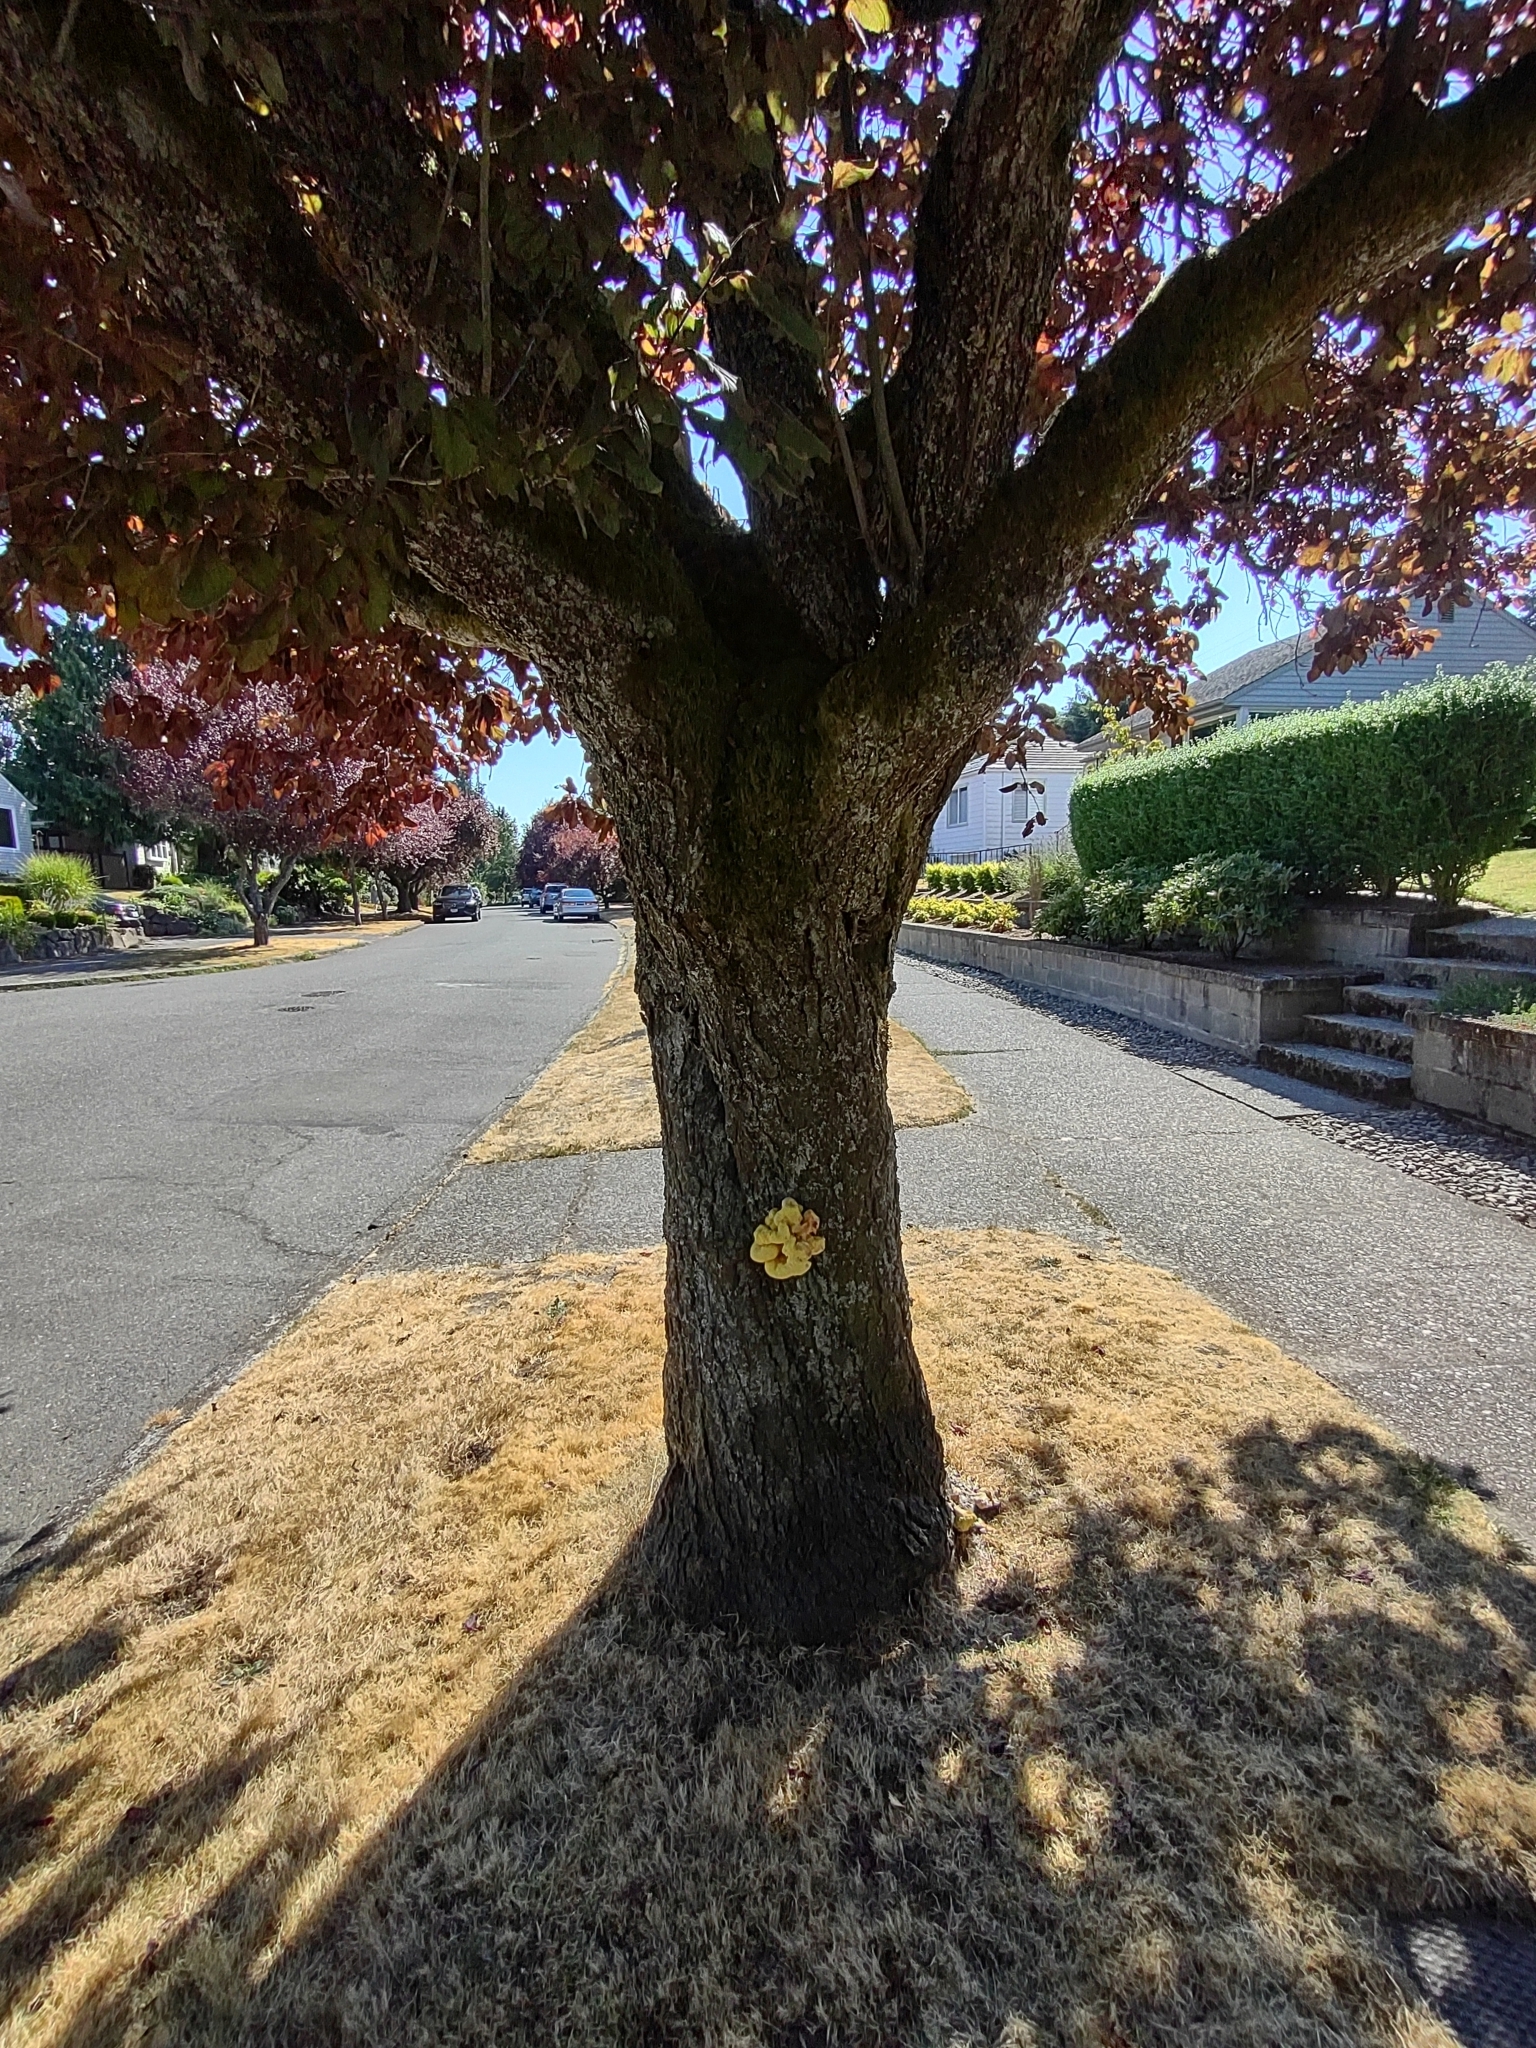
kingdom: Fungi
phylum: Basidiomycota
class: Agaricomycetes
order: Polyporales
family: Laetiporaceae
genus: Laetiporus
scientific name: Laetiporus gilbertsonii
